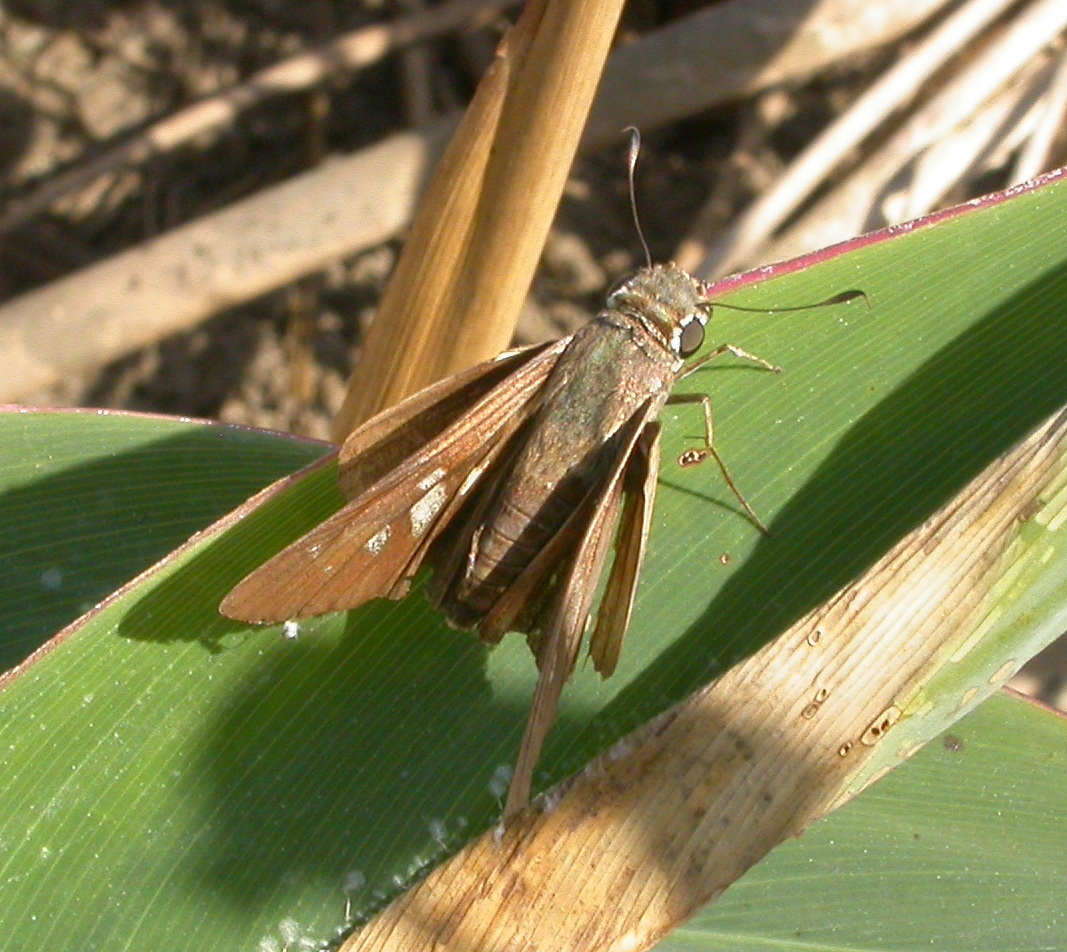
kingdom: Animalia
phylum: Arthropoda
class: Insecta
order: Lepidoptera
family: Hesperiidae
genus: Calpodes
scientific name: Calpodes ethlius
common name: Brazilian skipper
